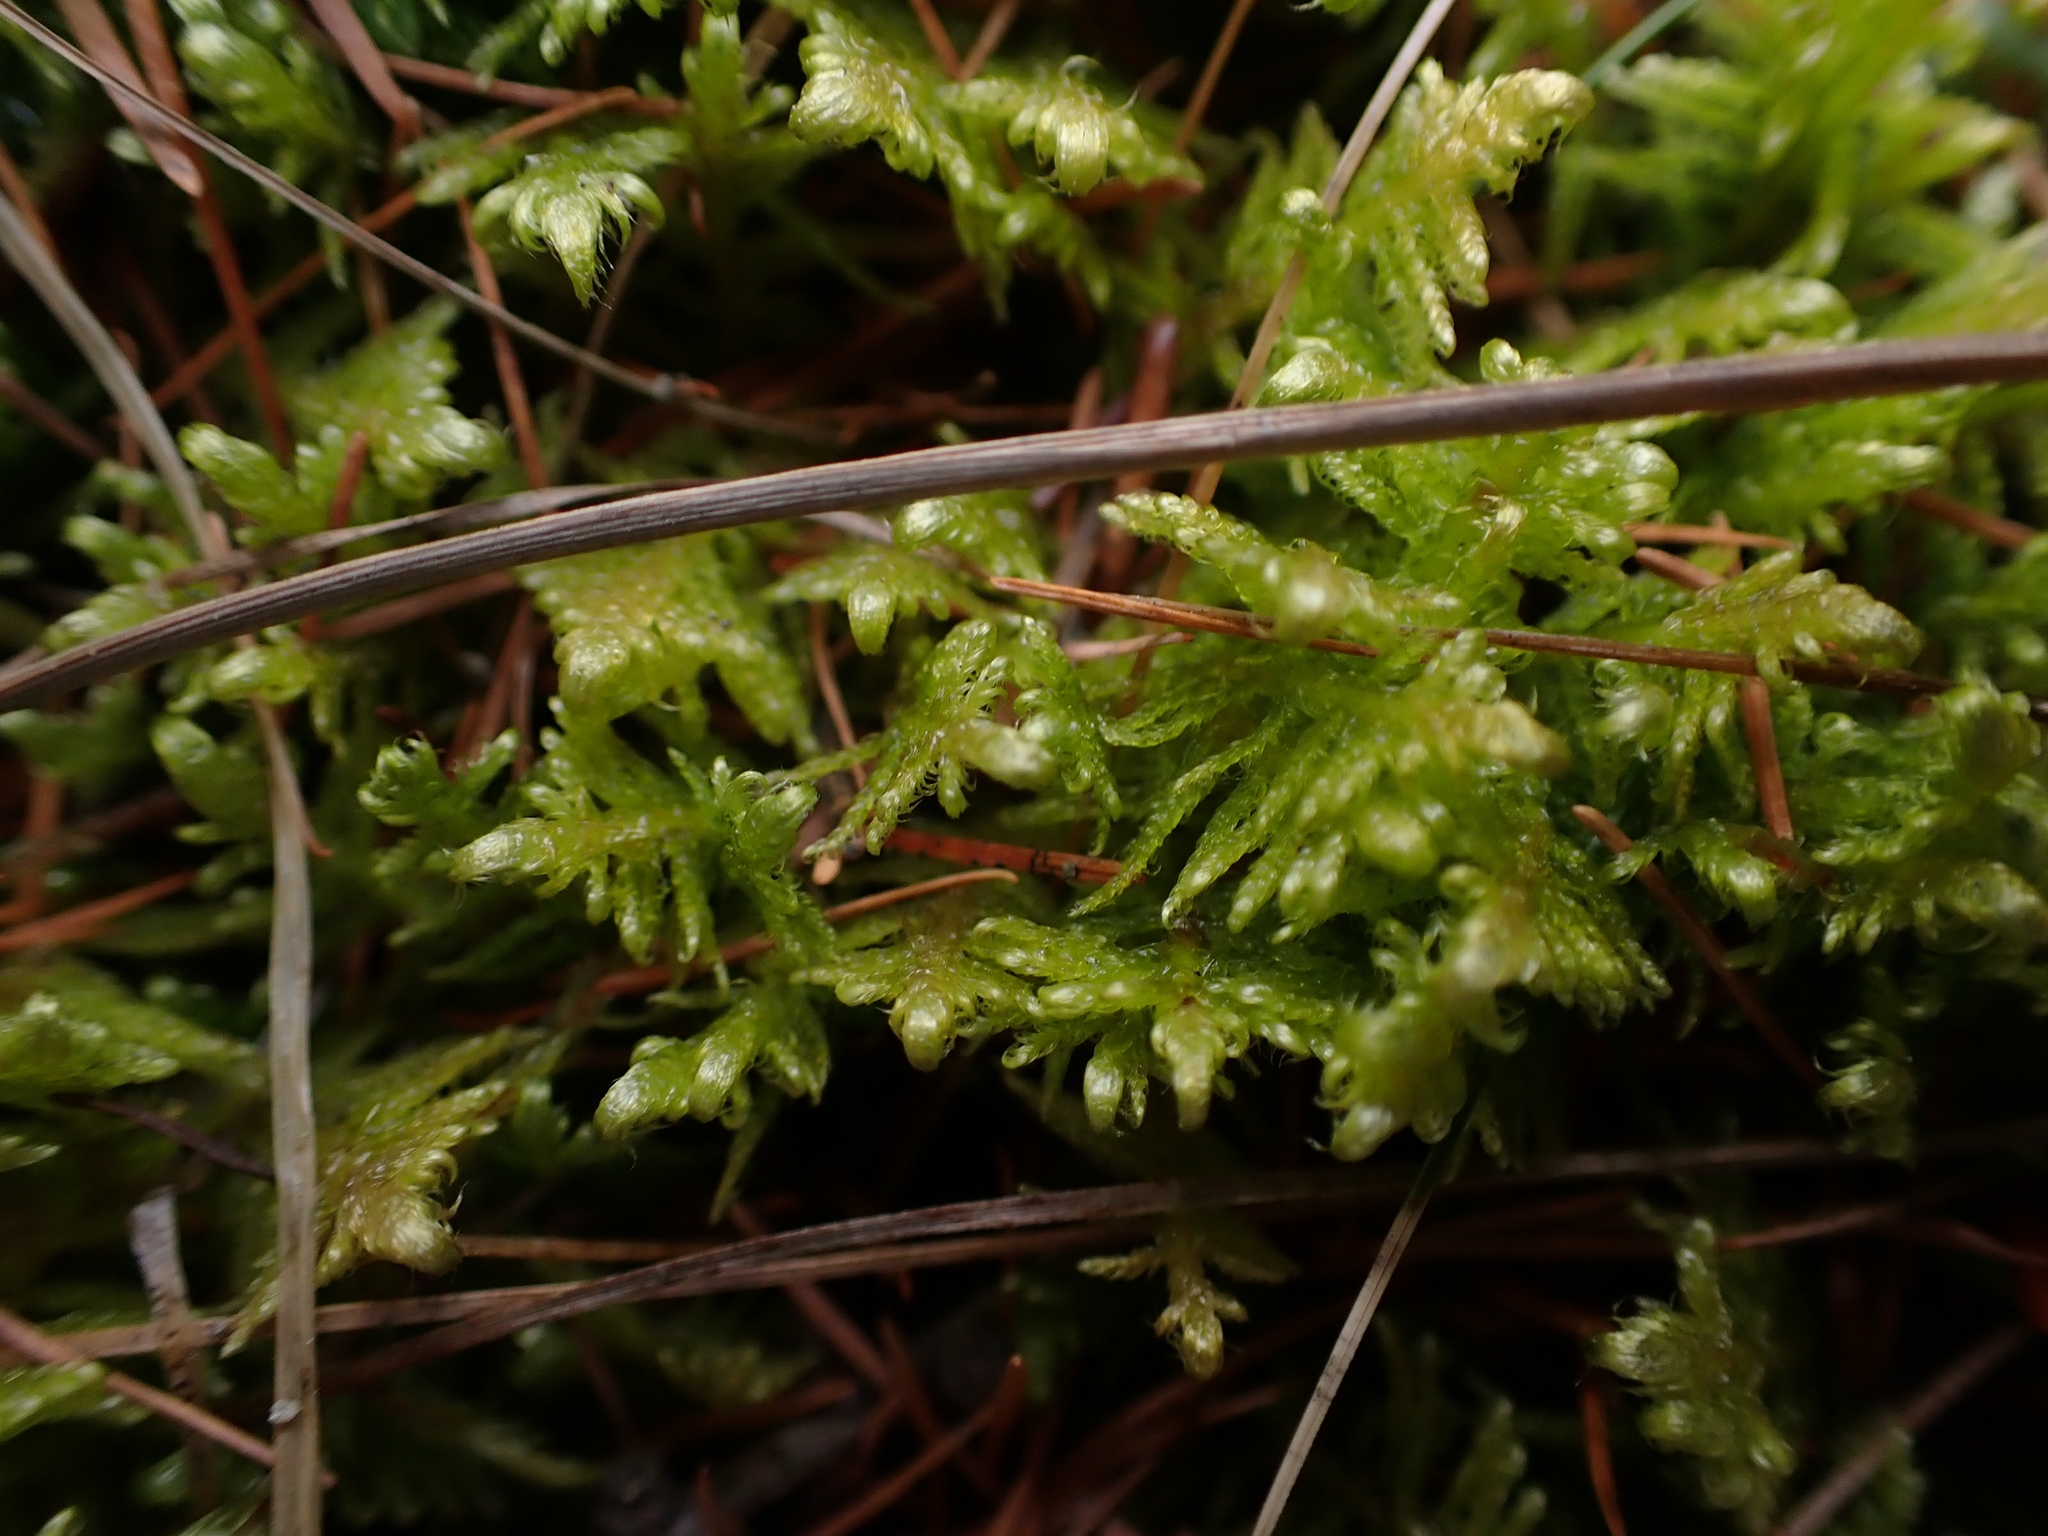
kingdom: Plantae
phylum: Bryophyta
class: Bryopsida
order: Hypnales
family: Pylaisiaceae
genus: Ptilium
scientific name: Ptilium crista-castrensis
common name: Knight's plume moss
